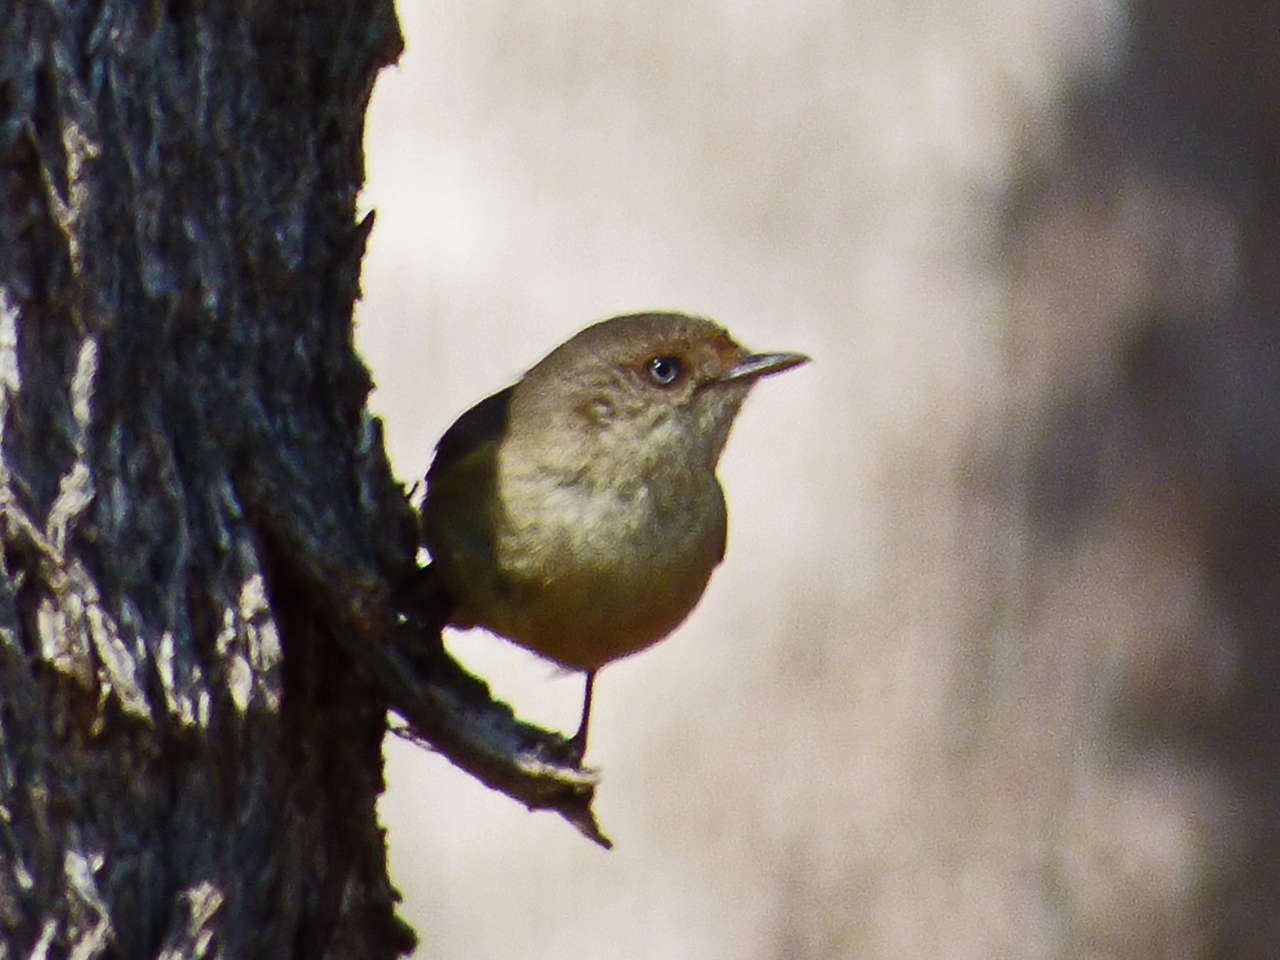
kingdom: Animalia
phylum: Chordata
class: Aves
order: Passeriformes
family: Acanthizidae
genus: Acanthiza
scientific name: Acanthiza reguloides
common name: Buff-rumped thornbill
